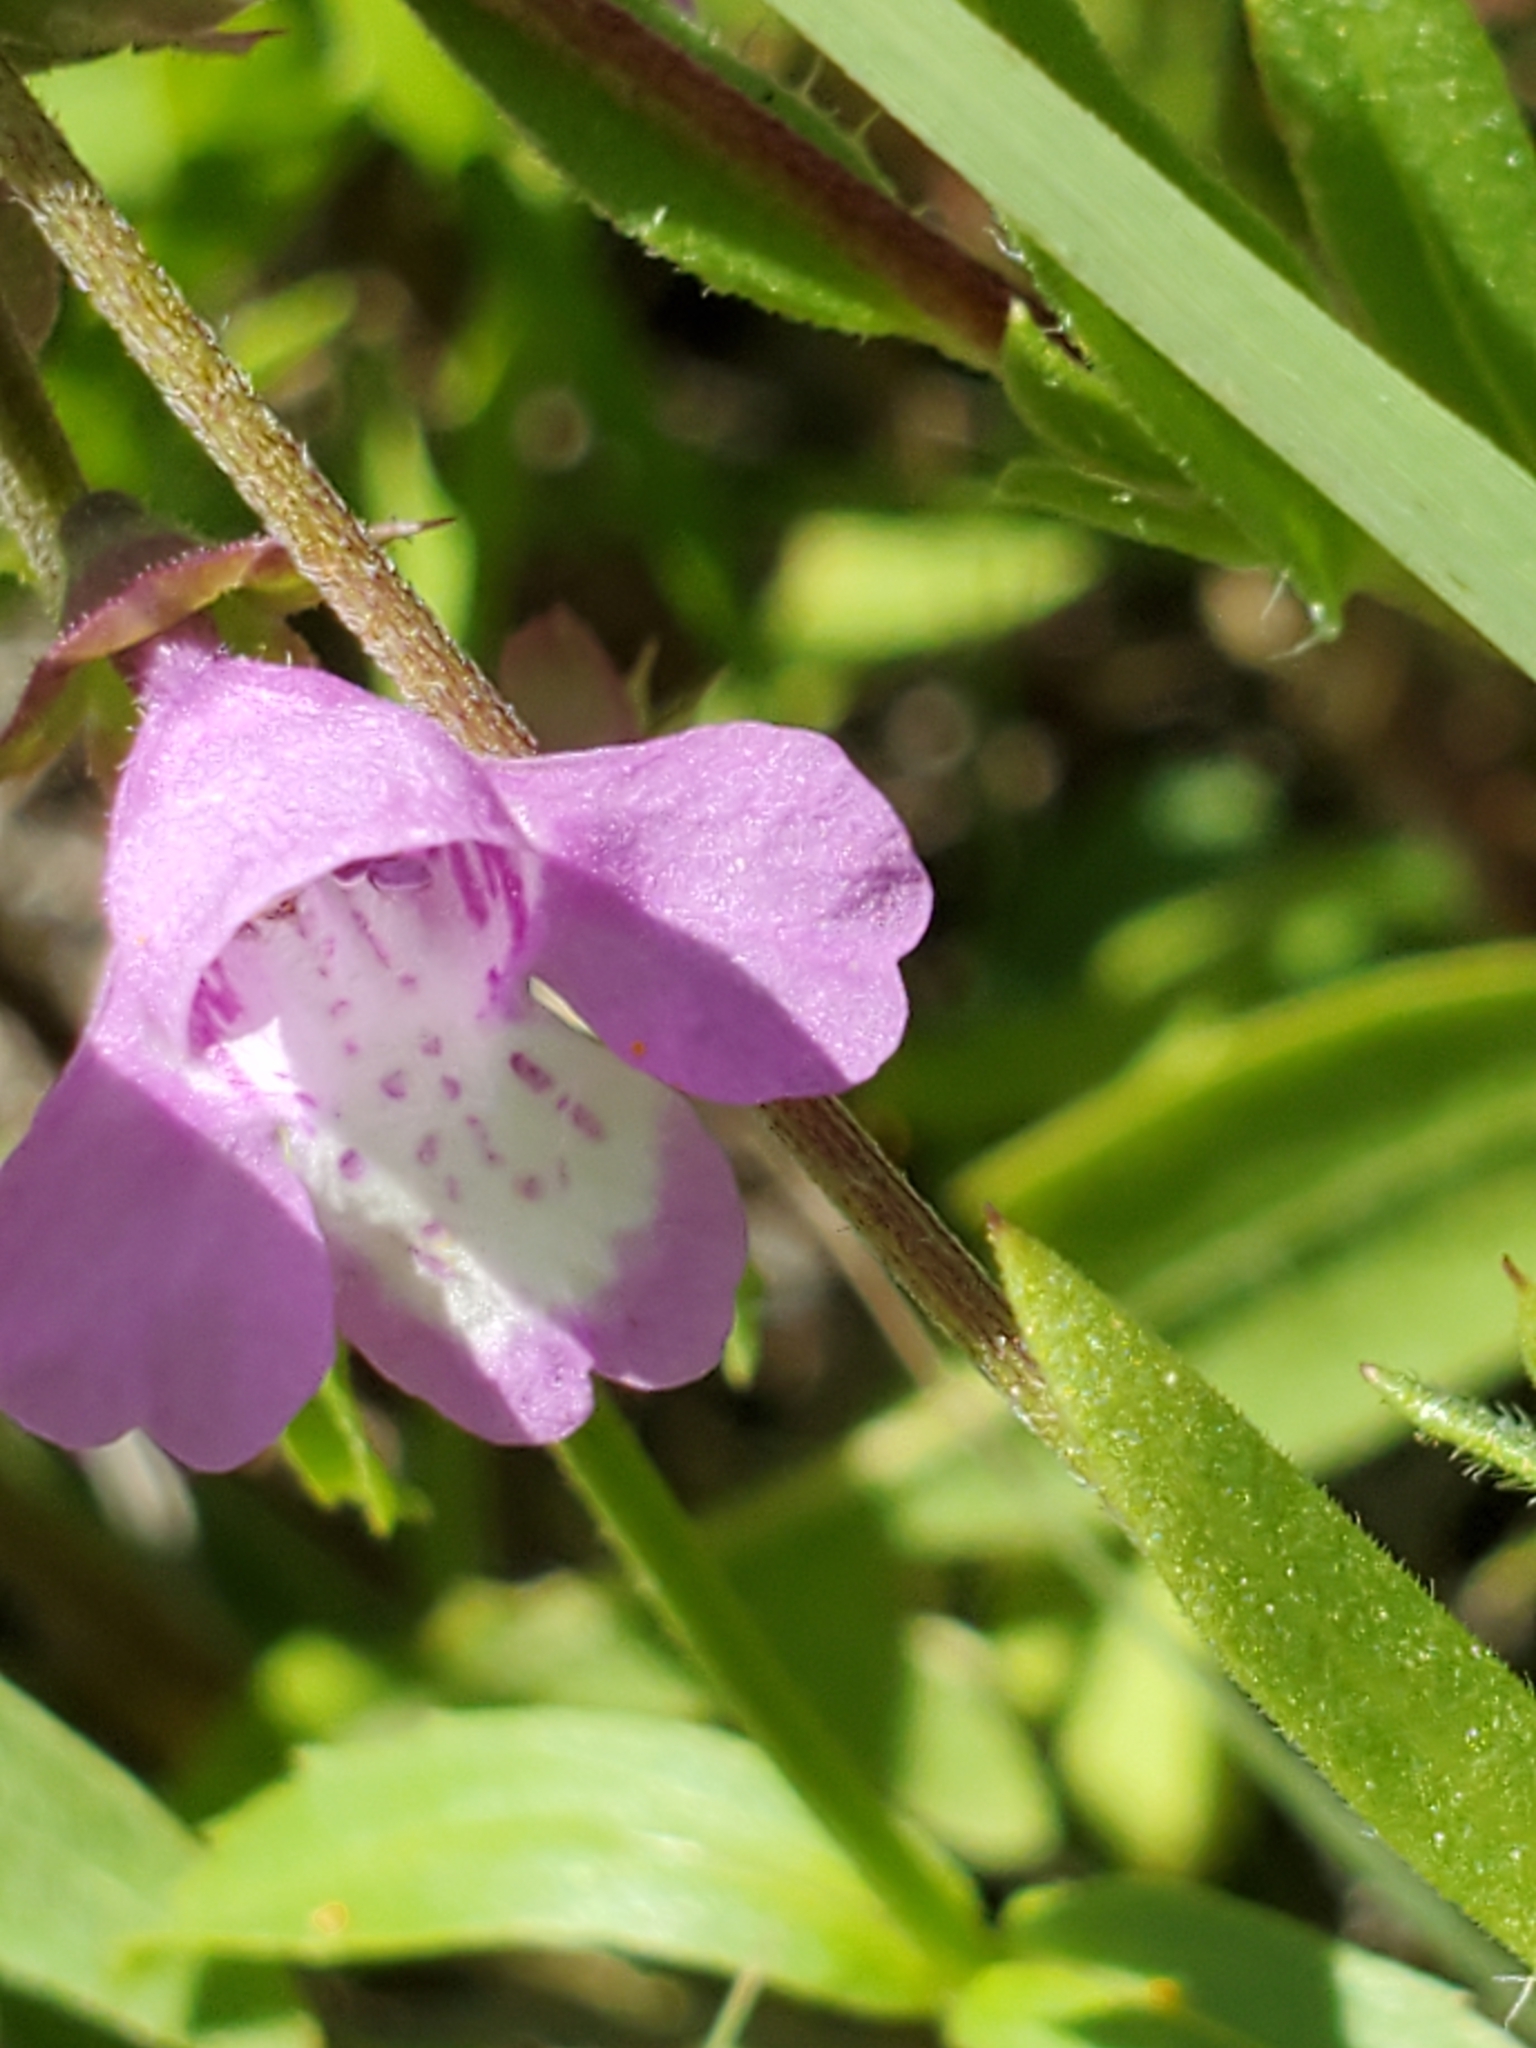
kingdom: Plantae
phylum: Tracheophyta
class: Magnoliopsida
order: Lamiales
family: Lamiaceae
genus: Warnockia
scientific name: Warnockia scutellarioides
